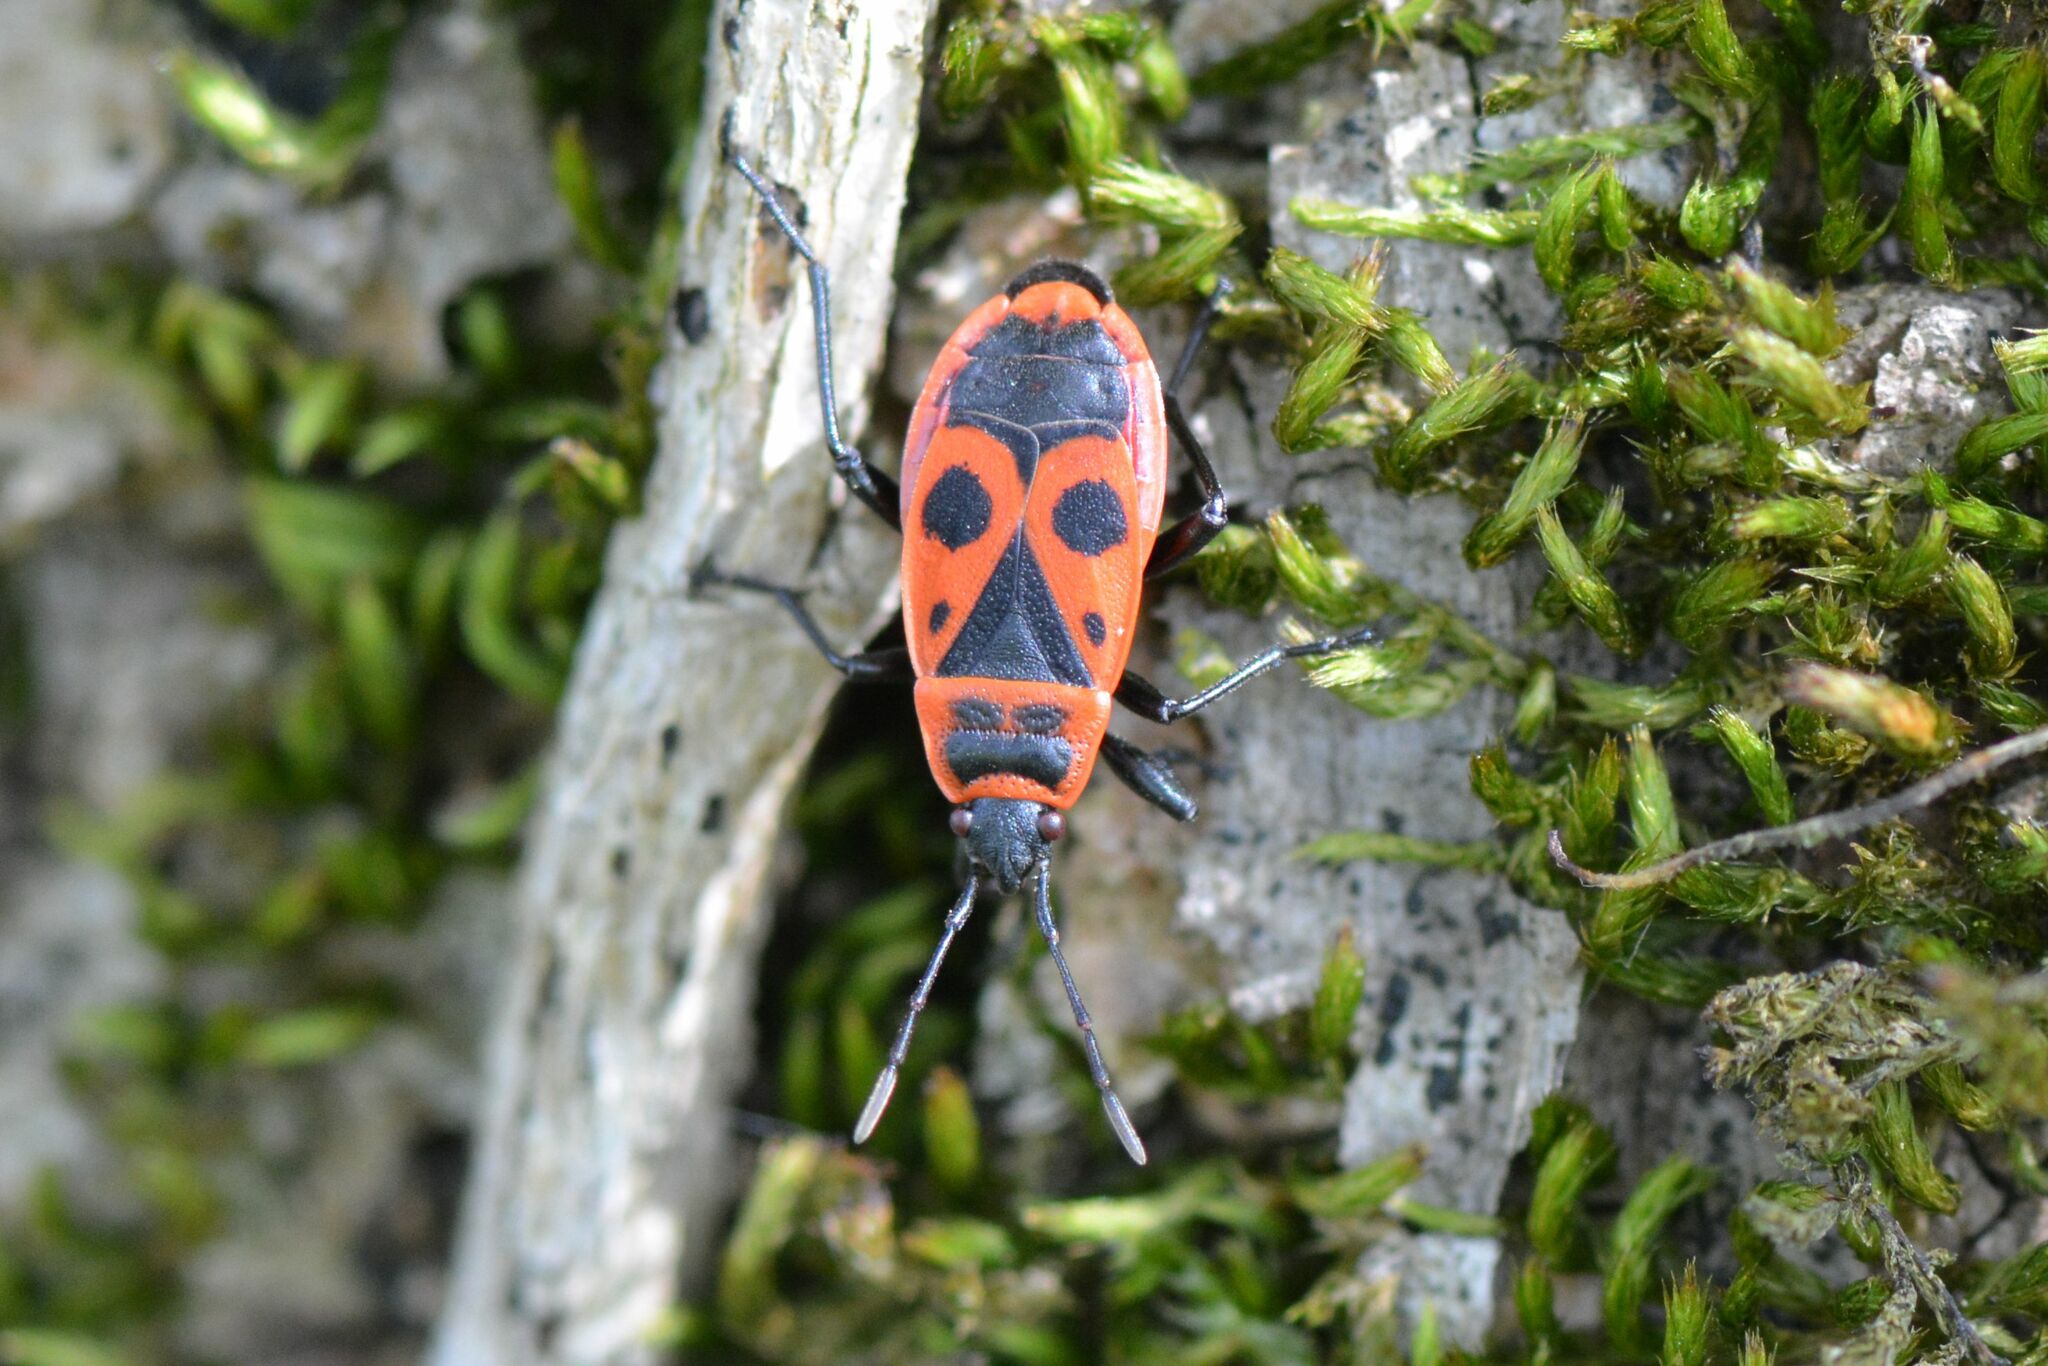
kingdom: Animalia
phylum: Arthropoda
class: Insecta
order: Hemiptera
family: Pyrrhocoridae
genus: Pyrrhocoris
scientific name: Pyrrhocoris apterus
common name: Firebug
